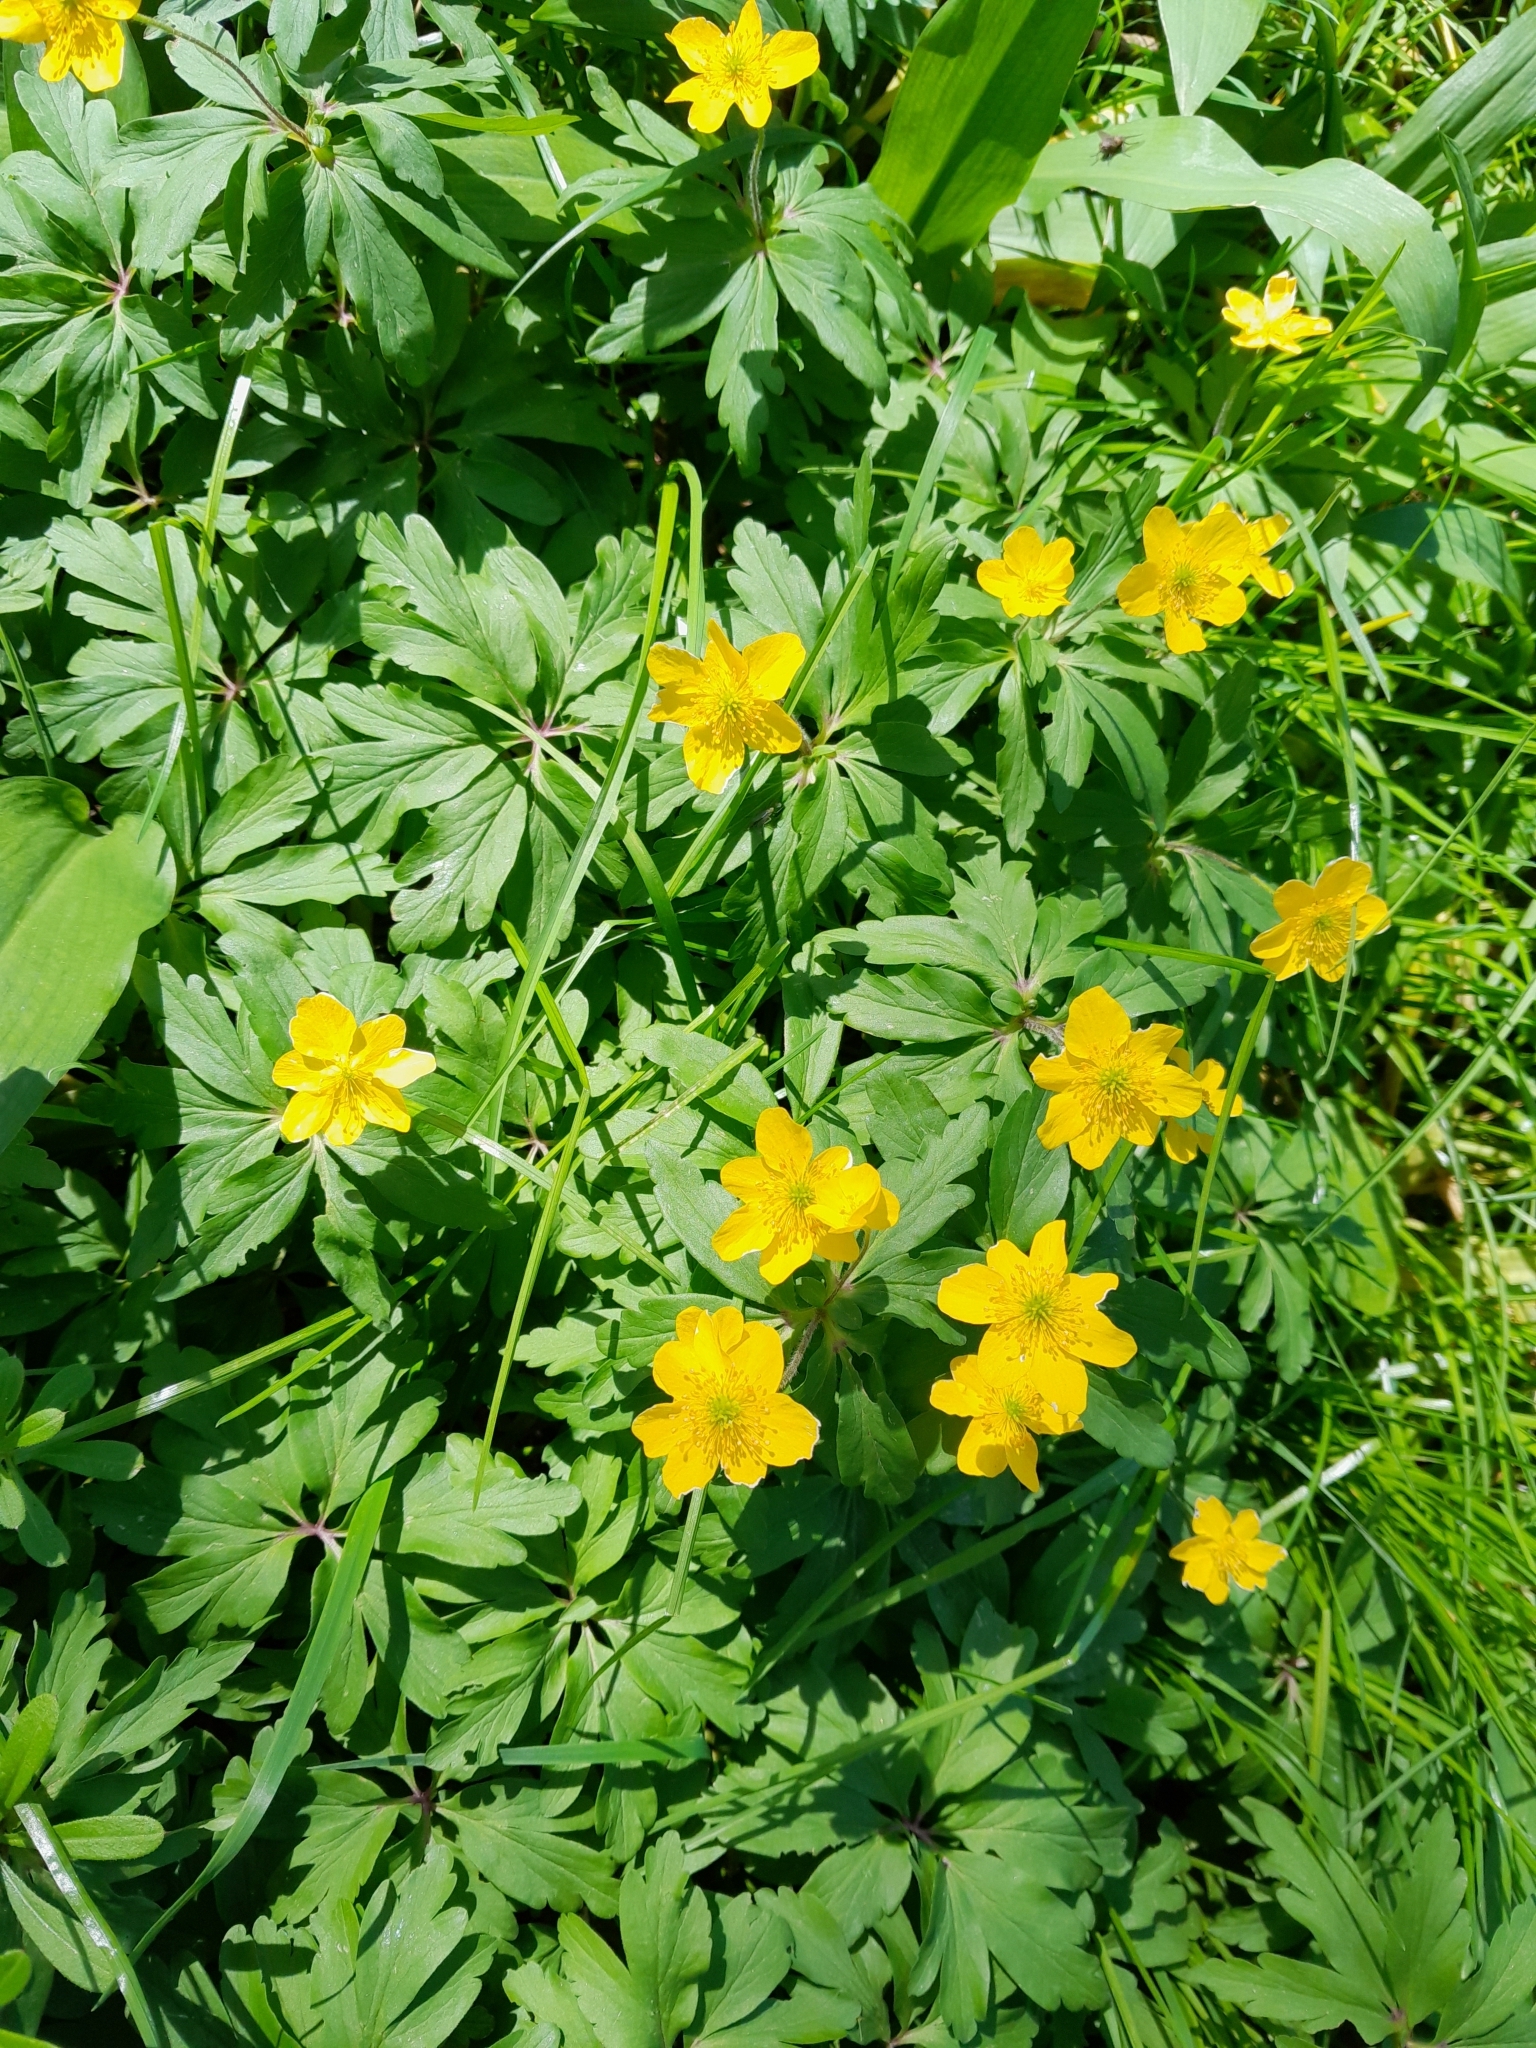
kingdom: Plantae
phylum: Tracheophyta
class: Magnoliopsida
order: Ranunculales
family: Ranunculaceae
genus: Anemone
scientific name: Anemone ranunculoides
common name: Yellow anemone
